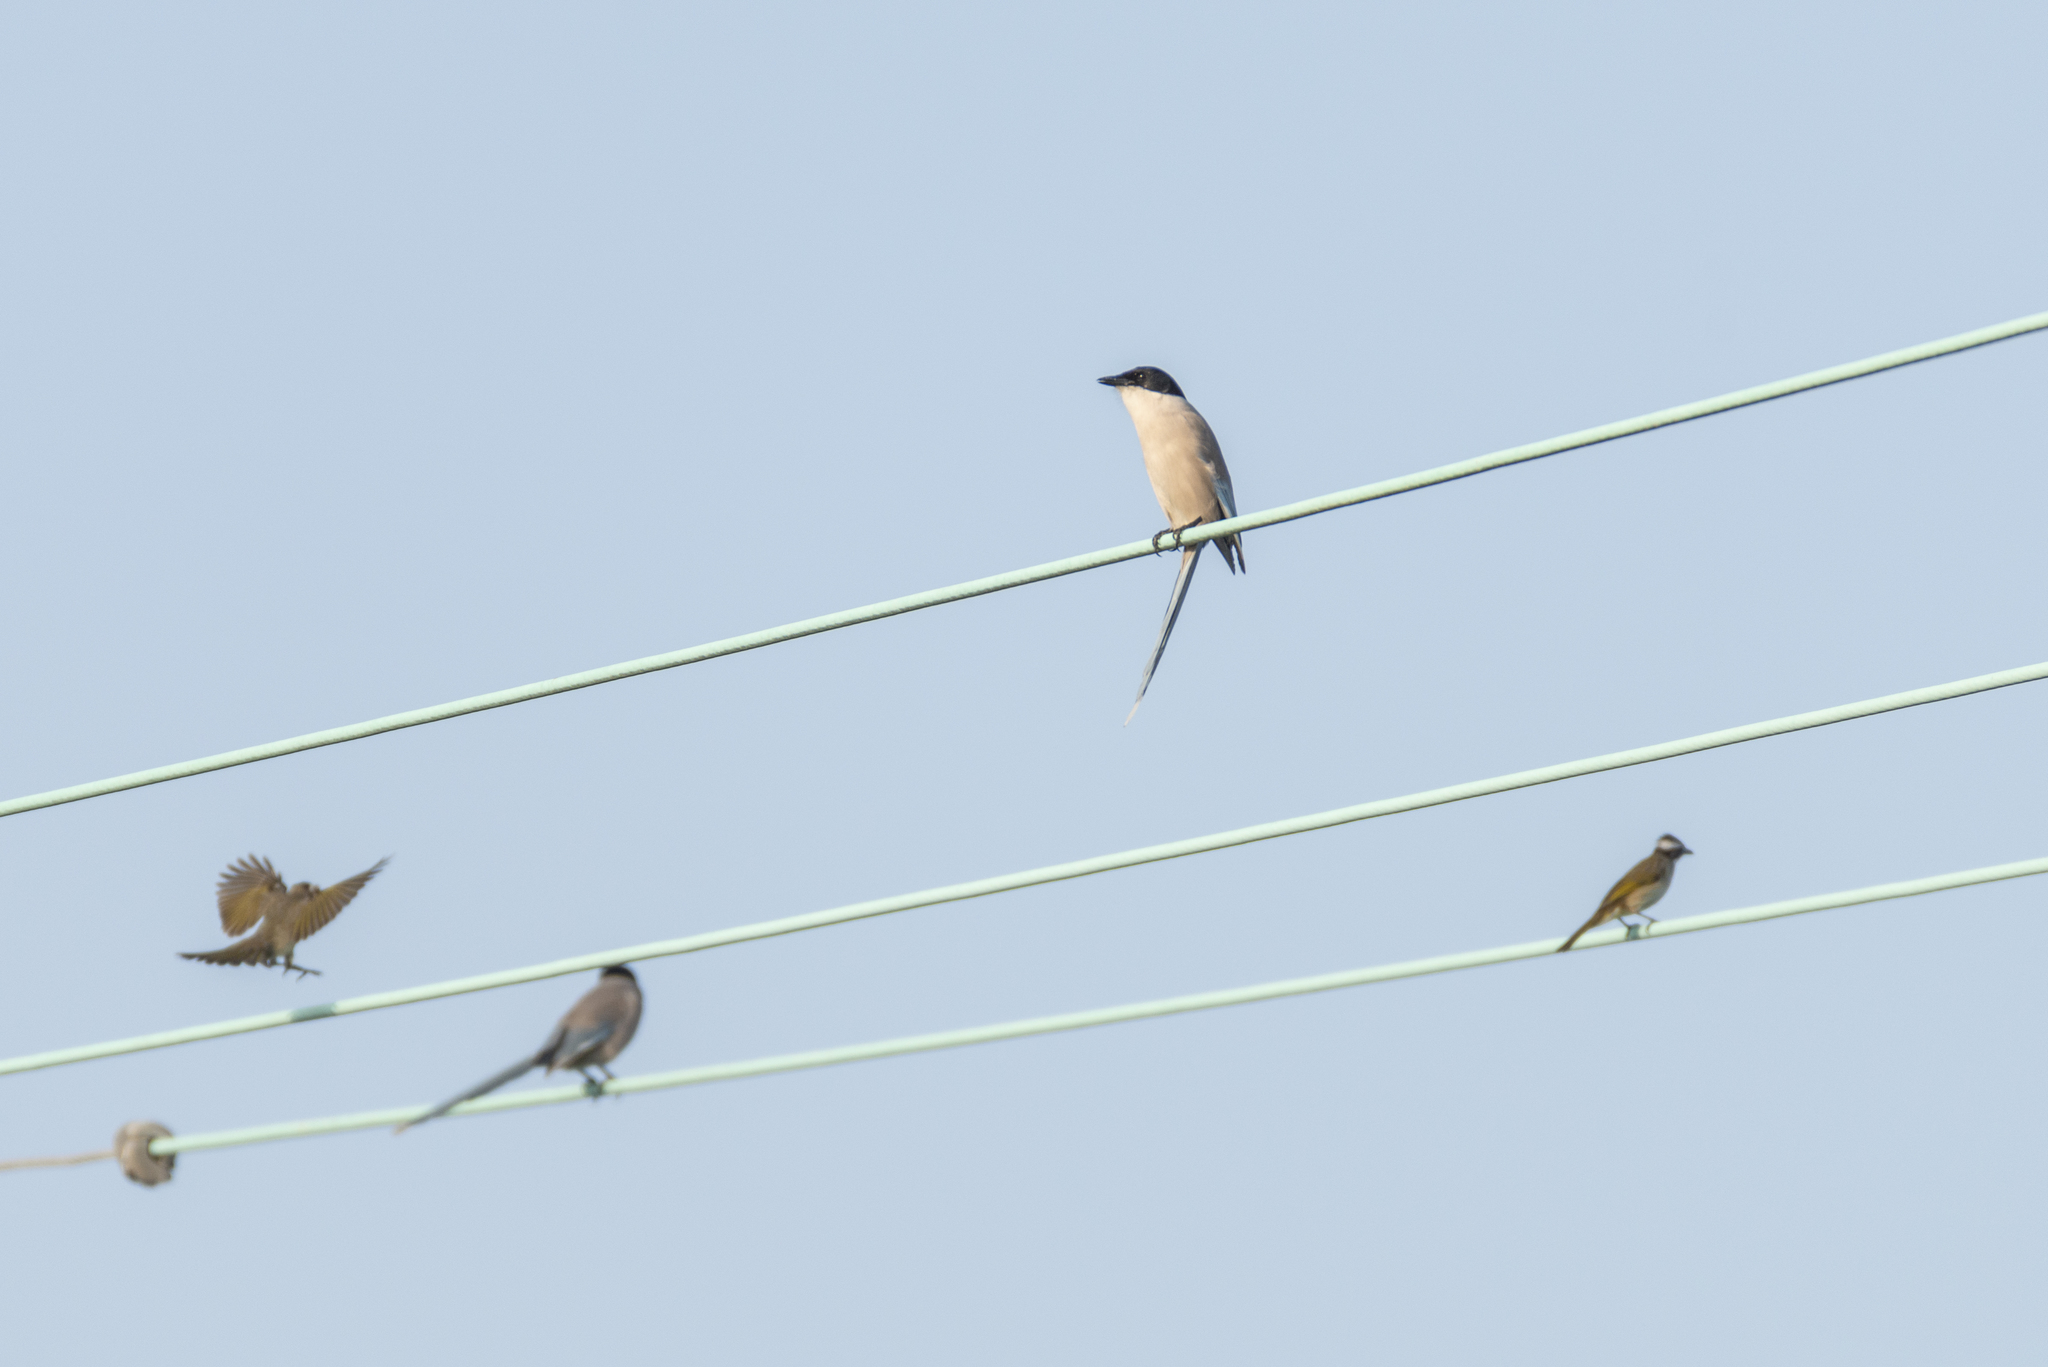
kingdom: Animalia
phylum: Chordata
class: Aves
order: Passeriformes
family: Corvidae
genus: Cyanopica
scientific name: Cyanopica cyanus
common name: Azure-winged magpie
